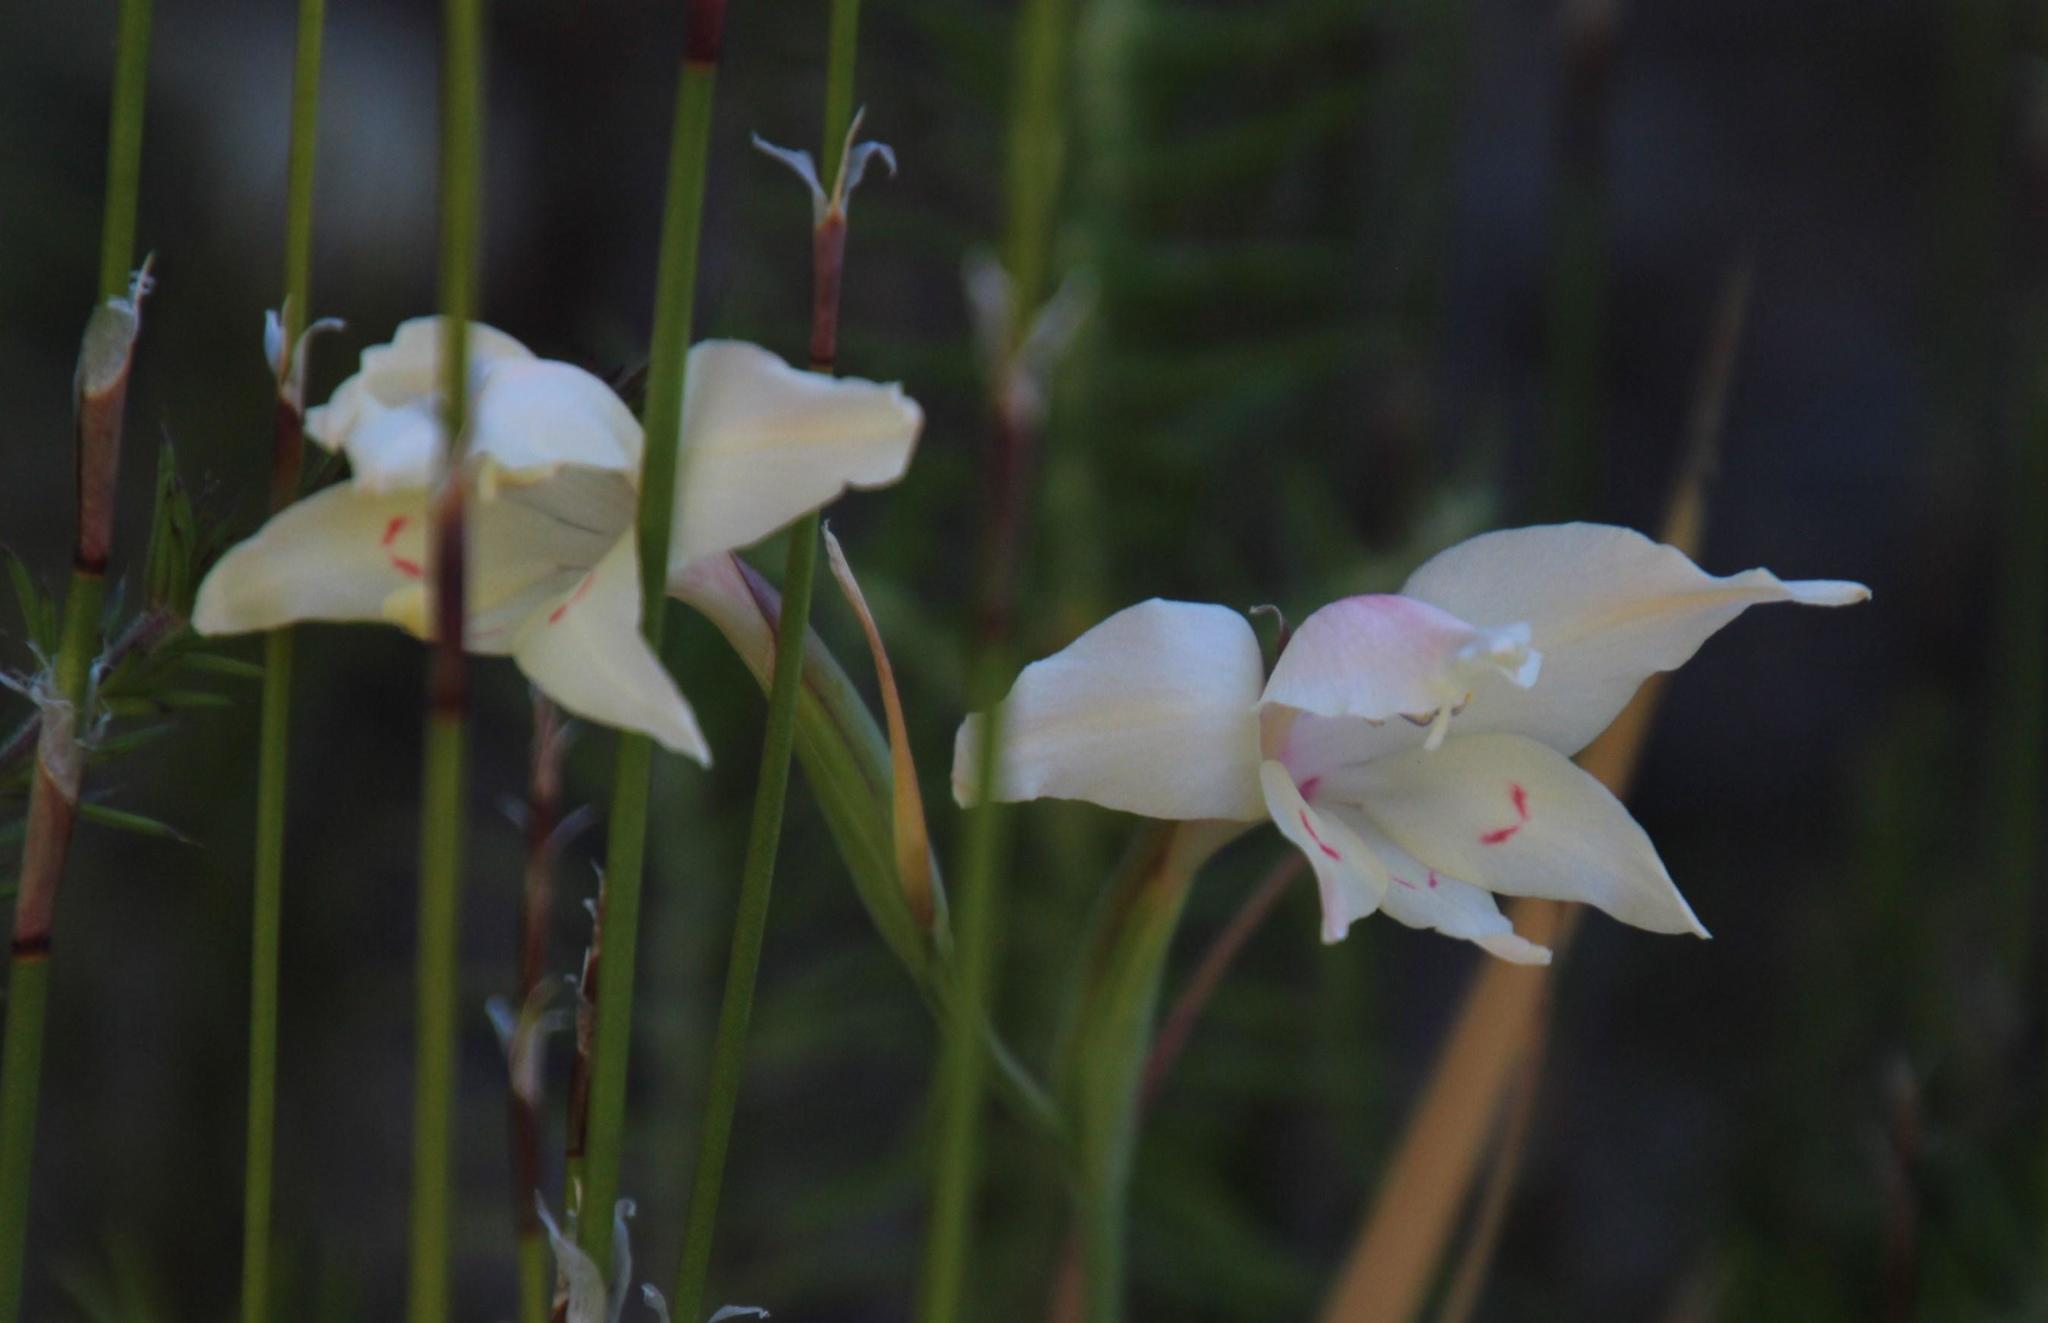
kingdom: Plantae
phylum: Tracheophyta
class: Liliopsida
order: Asparagales
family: Iridaceae
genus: Gladiolus
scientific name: Gladiolus carneus
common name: Painted-lady
